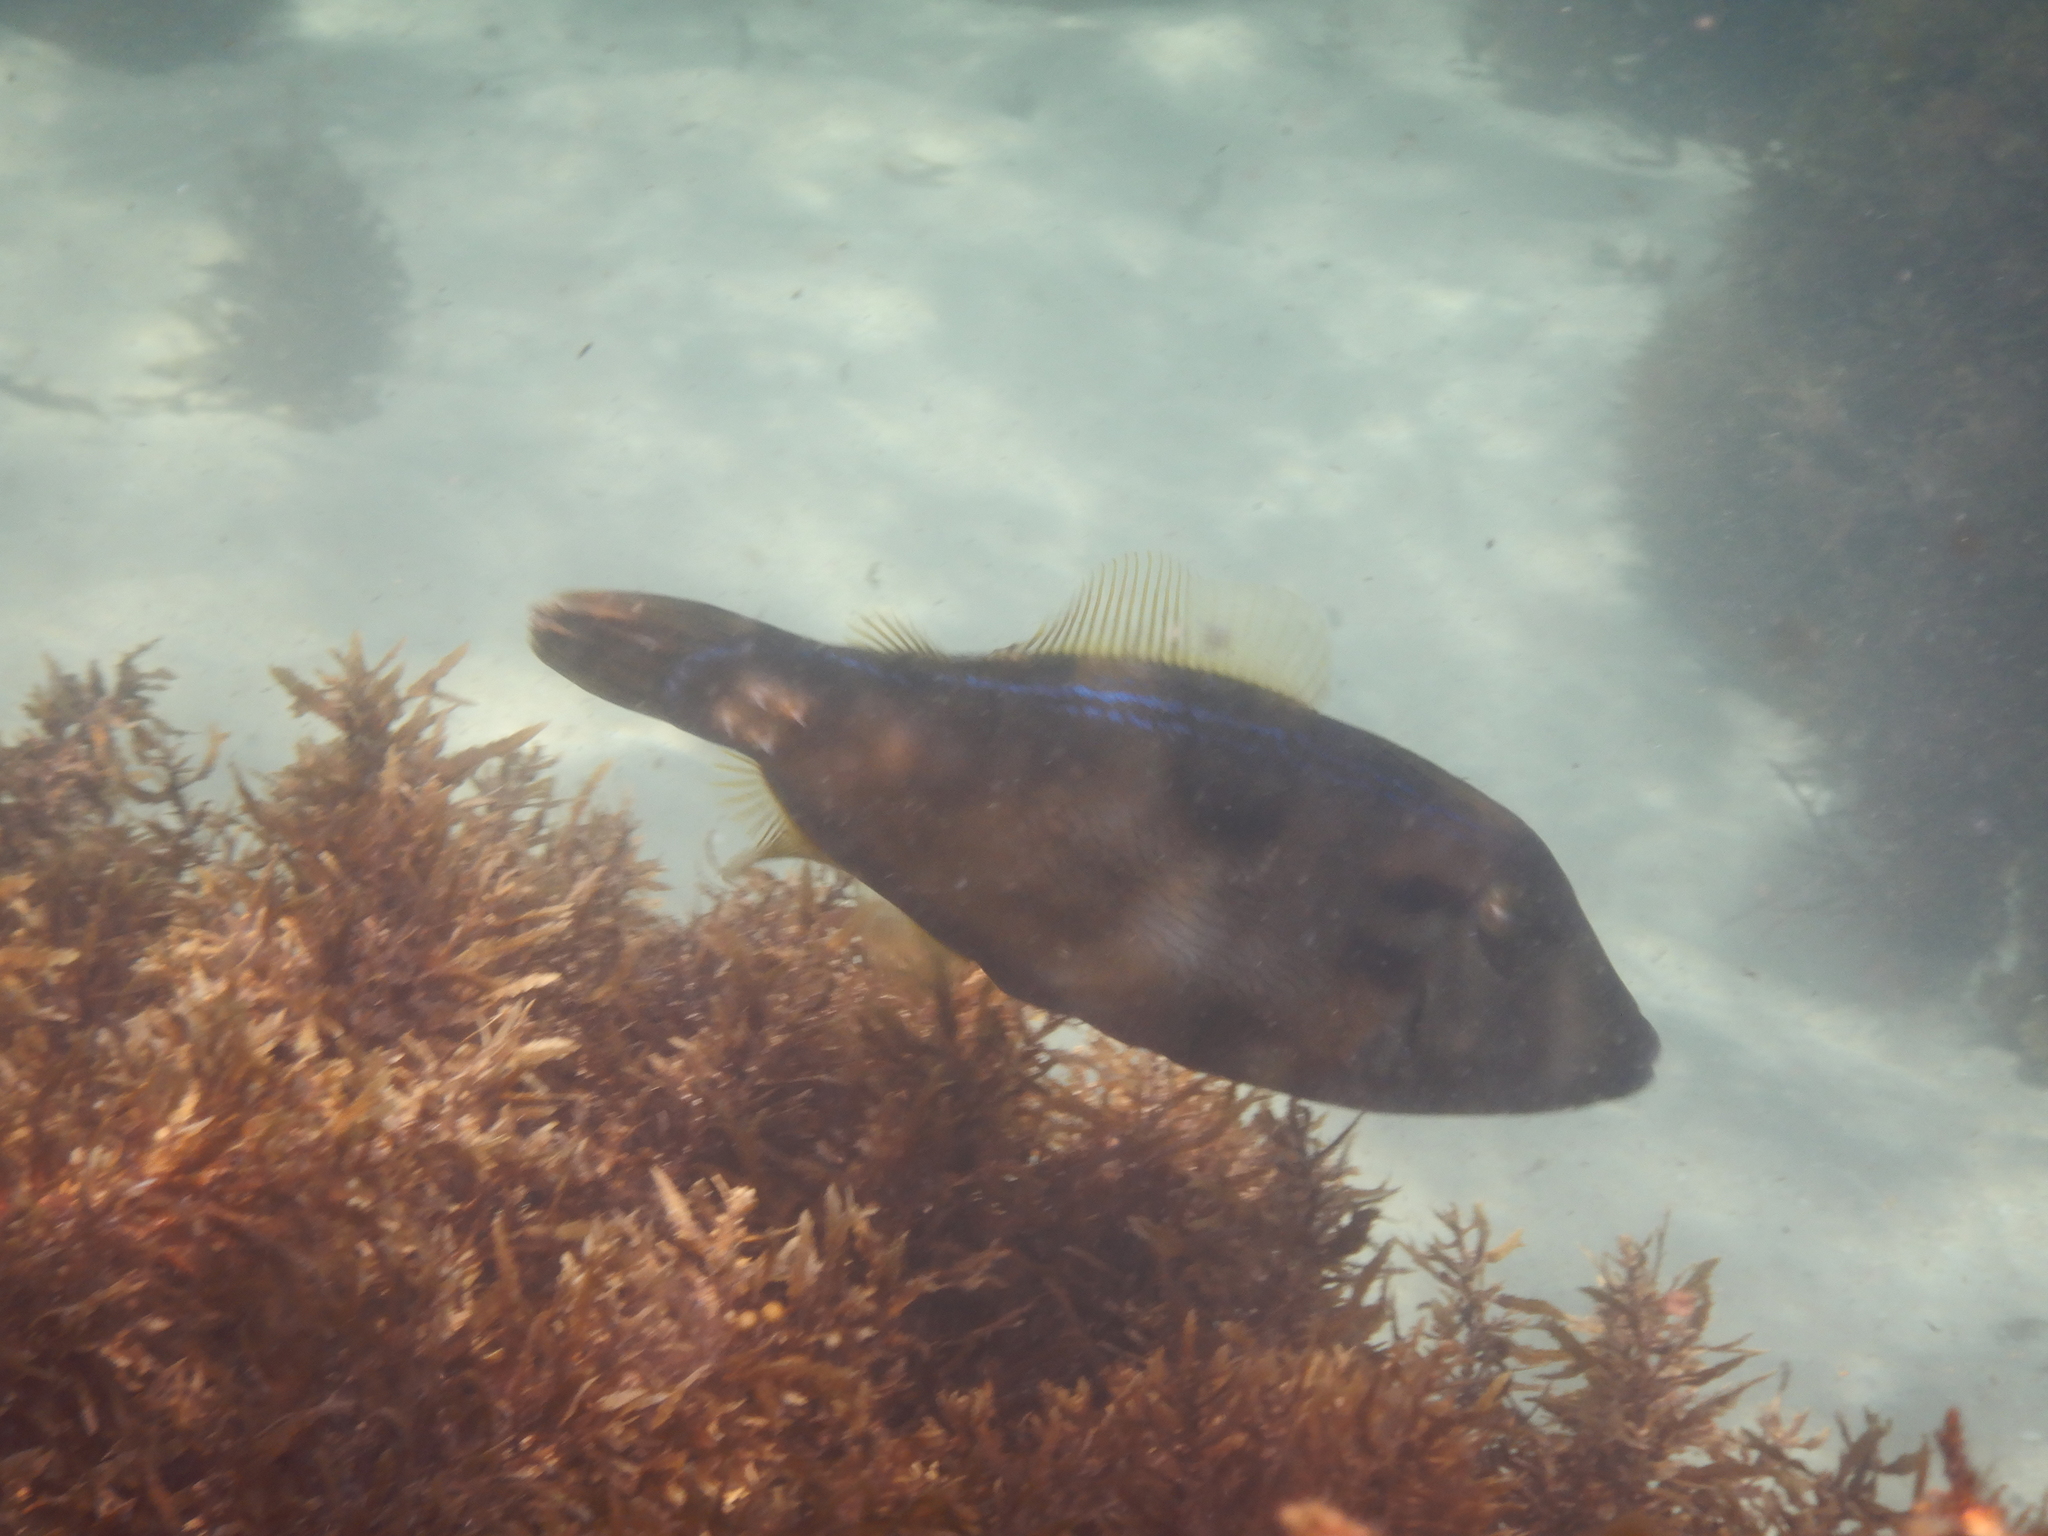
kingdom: Animalia
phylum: Chordata
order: Tetraodontiformes
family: Monacanthidae
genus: Meuschenia
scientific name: Meuschenia trachylepis
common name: Yellowfin leatherjacket
